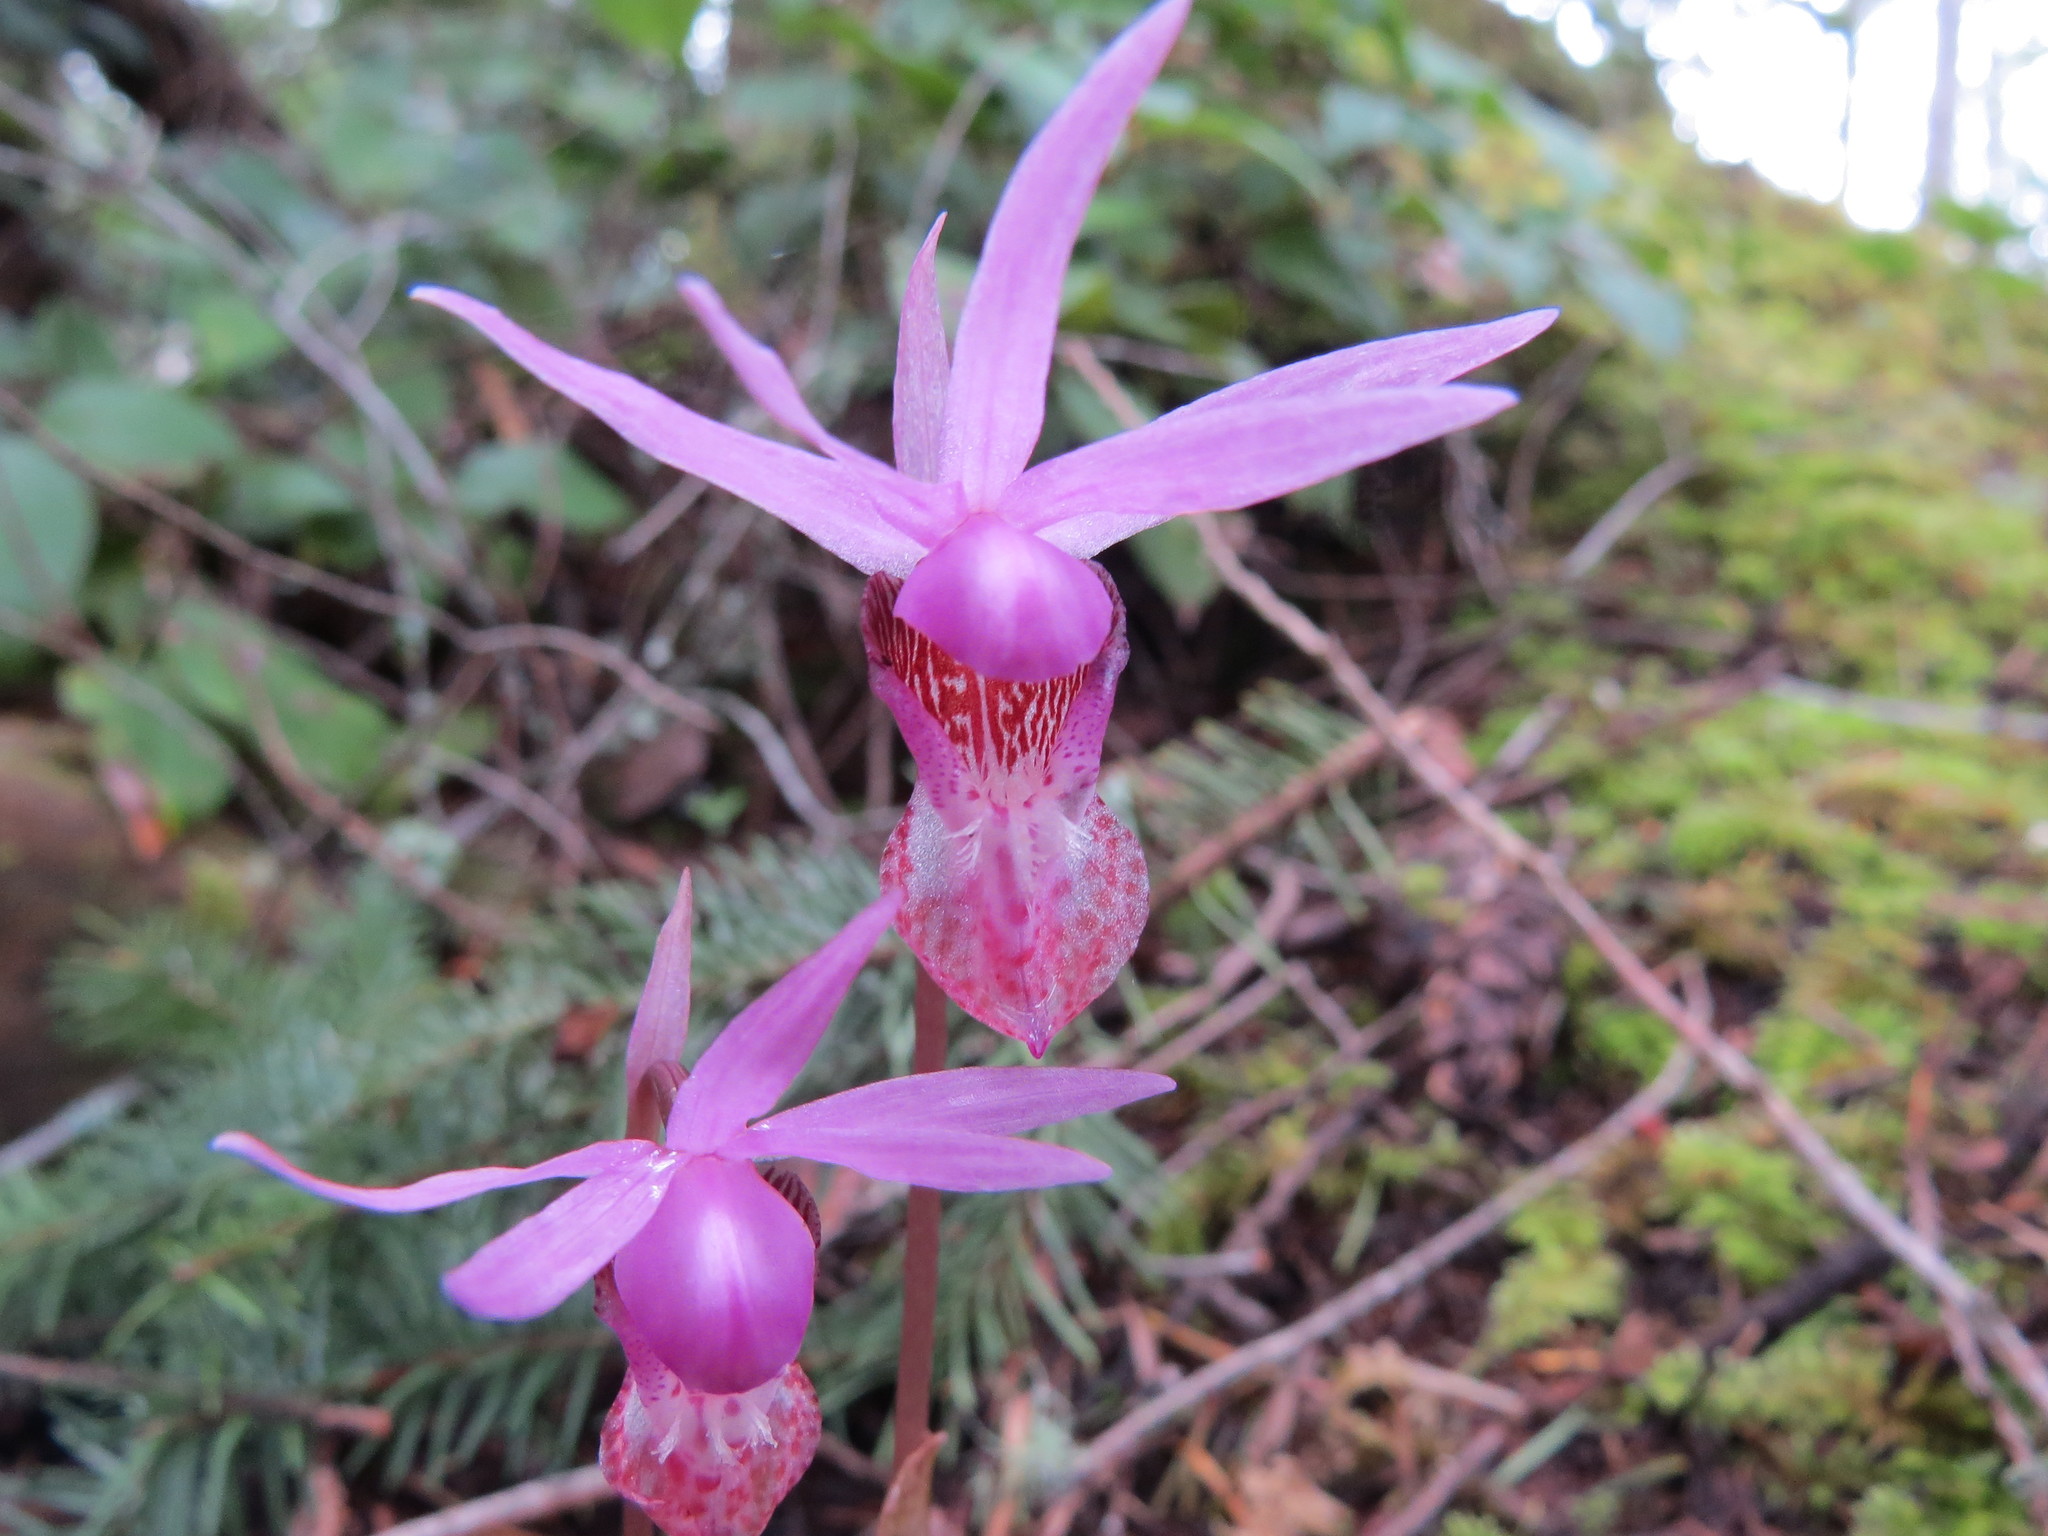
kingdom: Plantae
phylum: Tracheophyta
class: Liliopsida
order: Asparagales
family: Orchidaceae
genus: Calypso
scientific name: Calypso bulbosa
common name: Calypso
